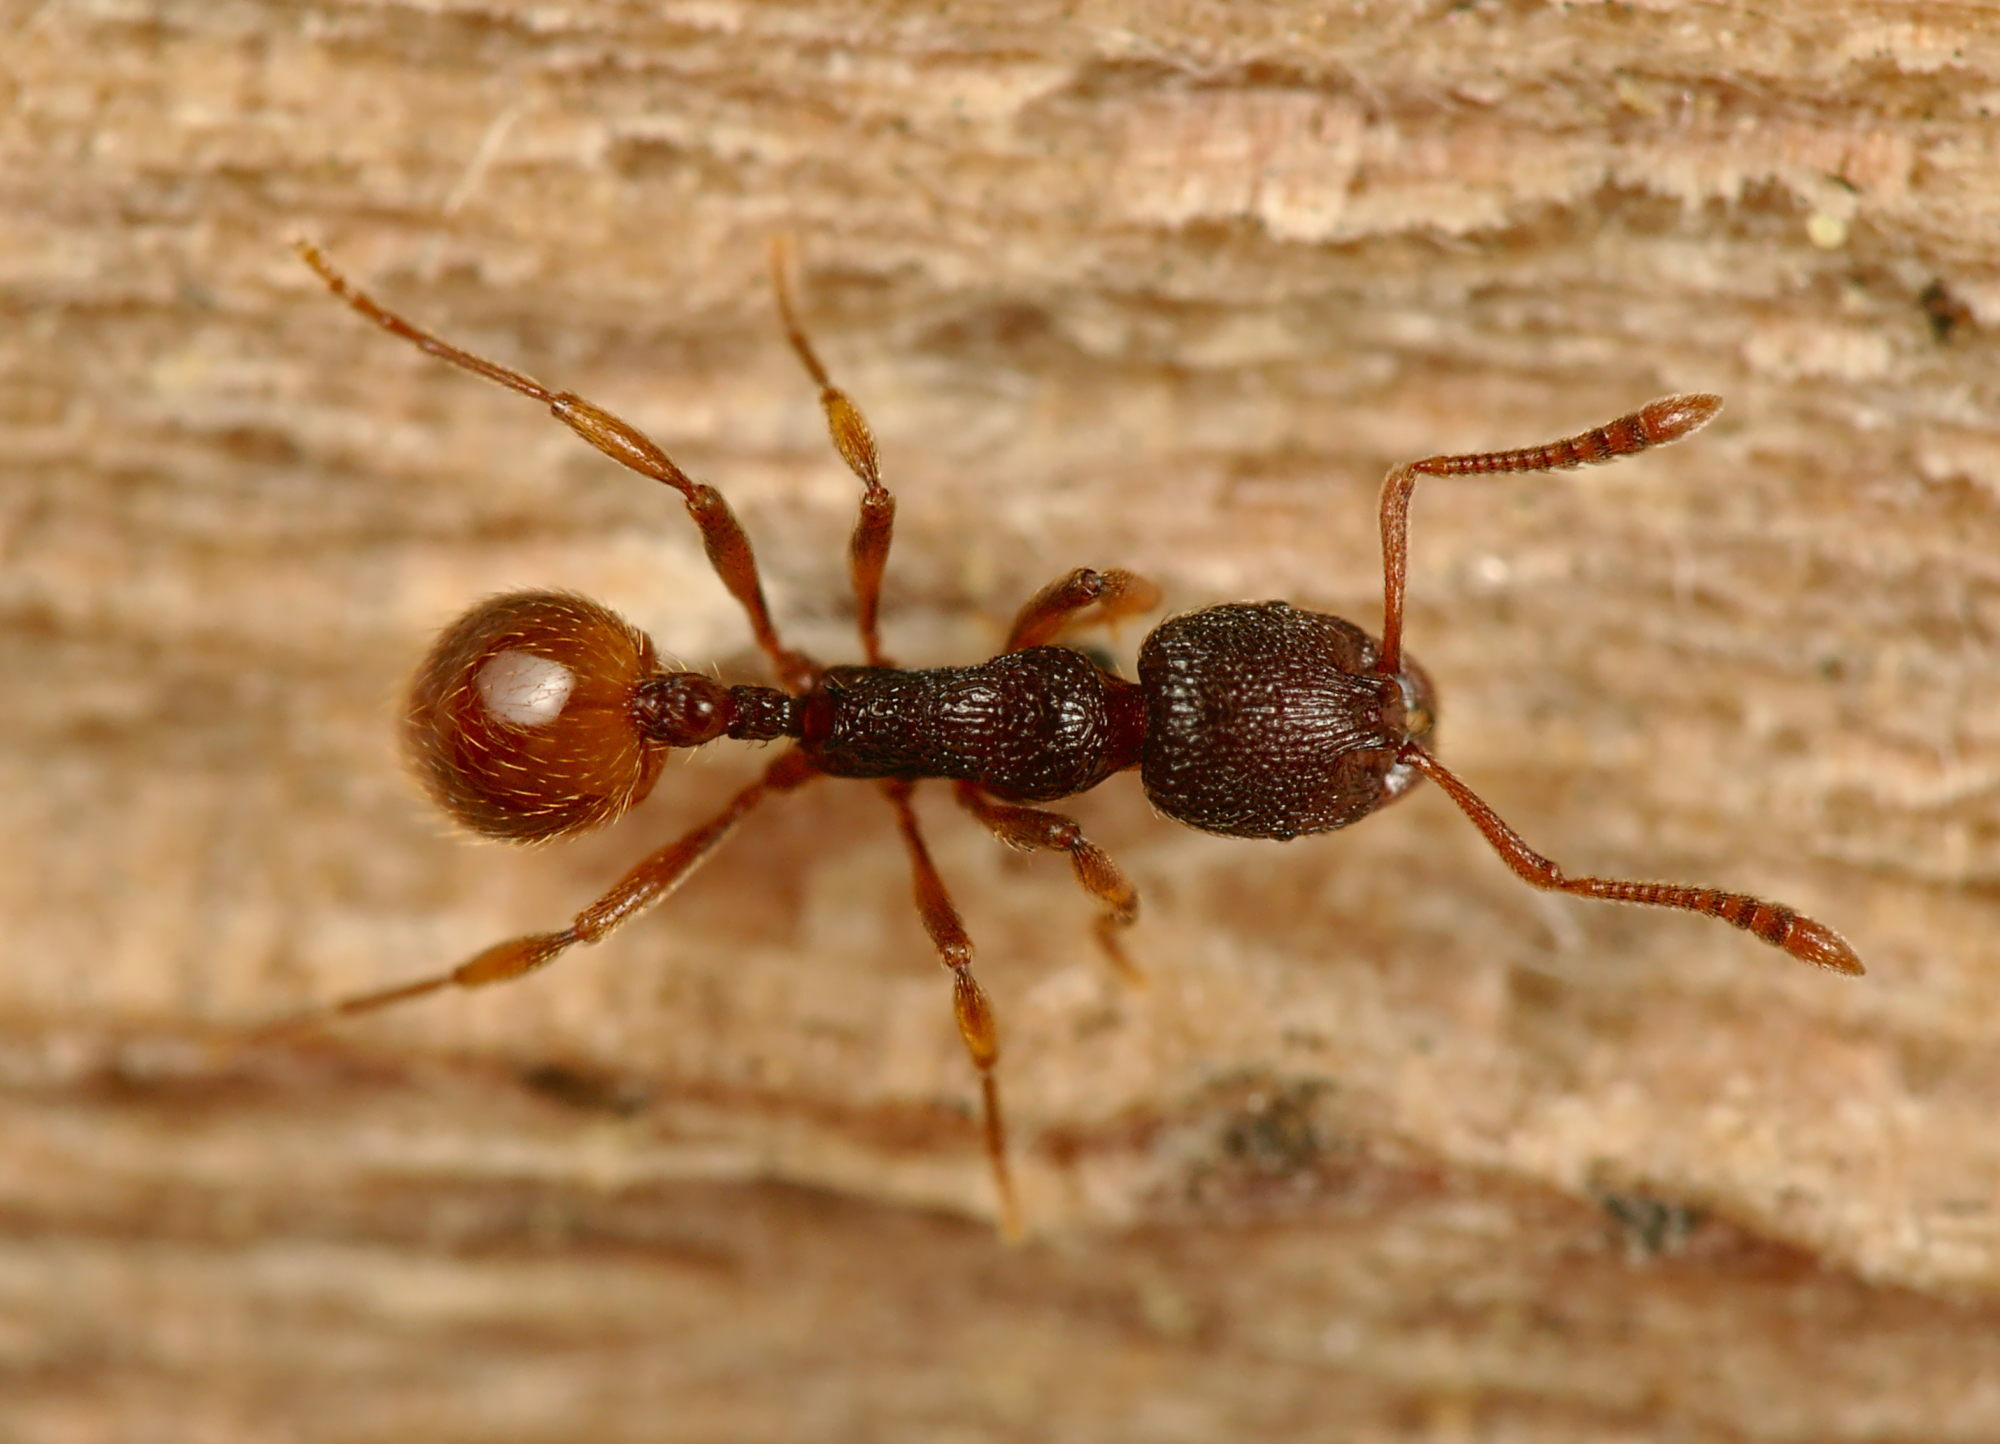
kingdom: Animalia
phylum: Arthropoda
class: Insecta
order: Hymenoptera
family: Formicidae
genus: Stenamma
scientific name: Stenamma debile
